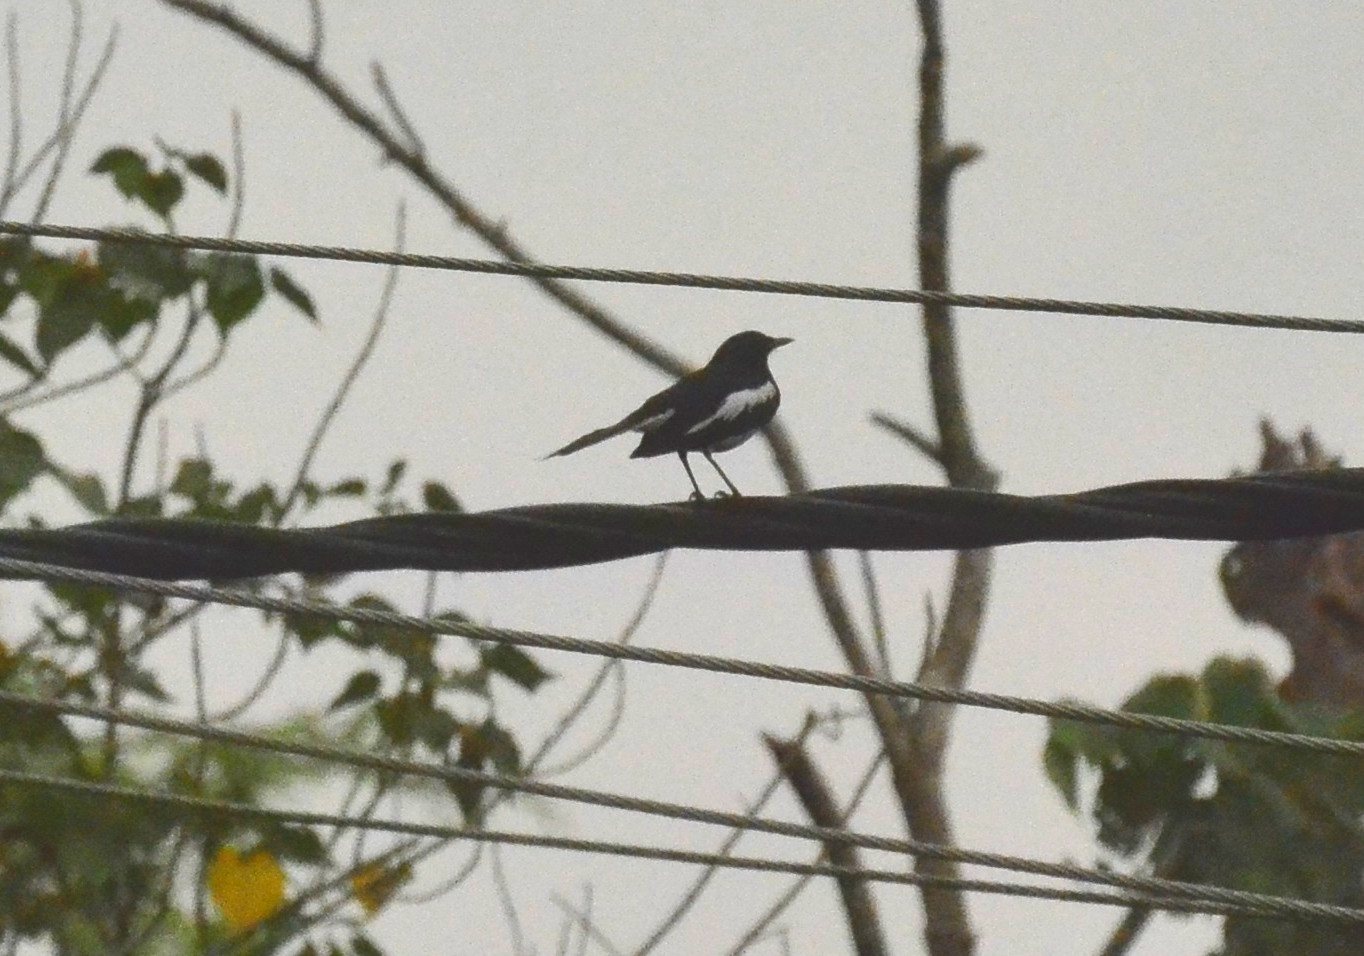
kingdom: Animalia
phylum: Chordata
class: Aves
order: Passeriformes
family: Muscicapidae
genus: Copsychus
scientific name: Copsychus saularis
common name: Oriental magpie-robin
